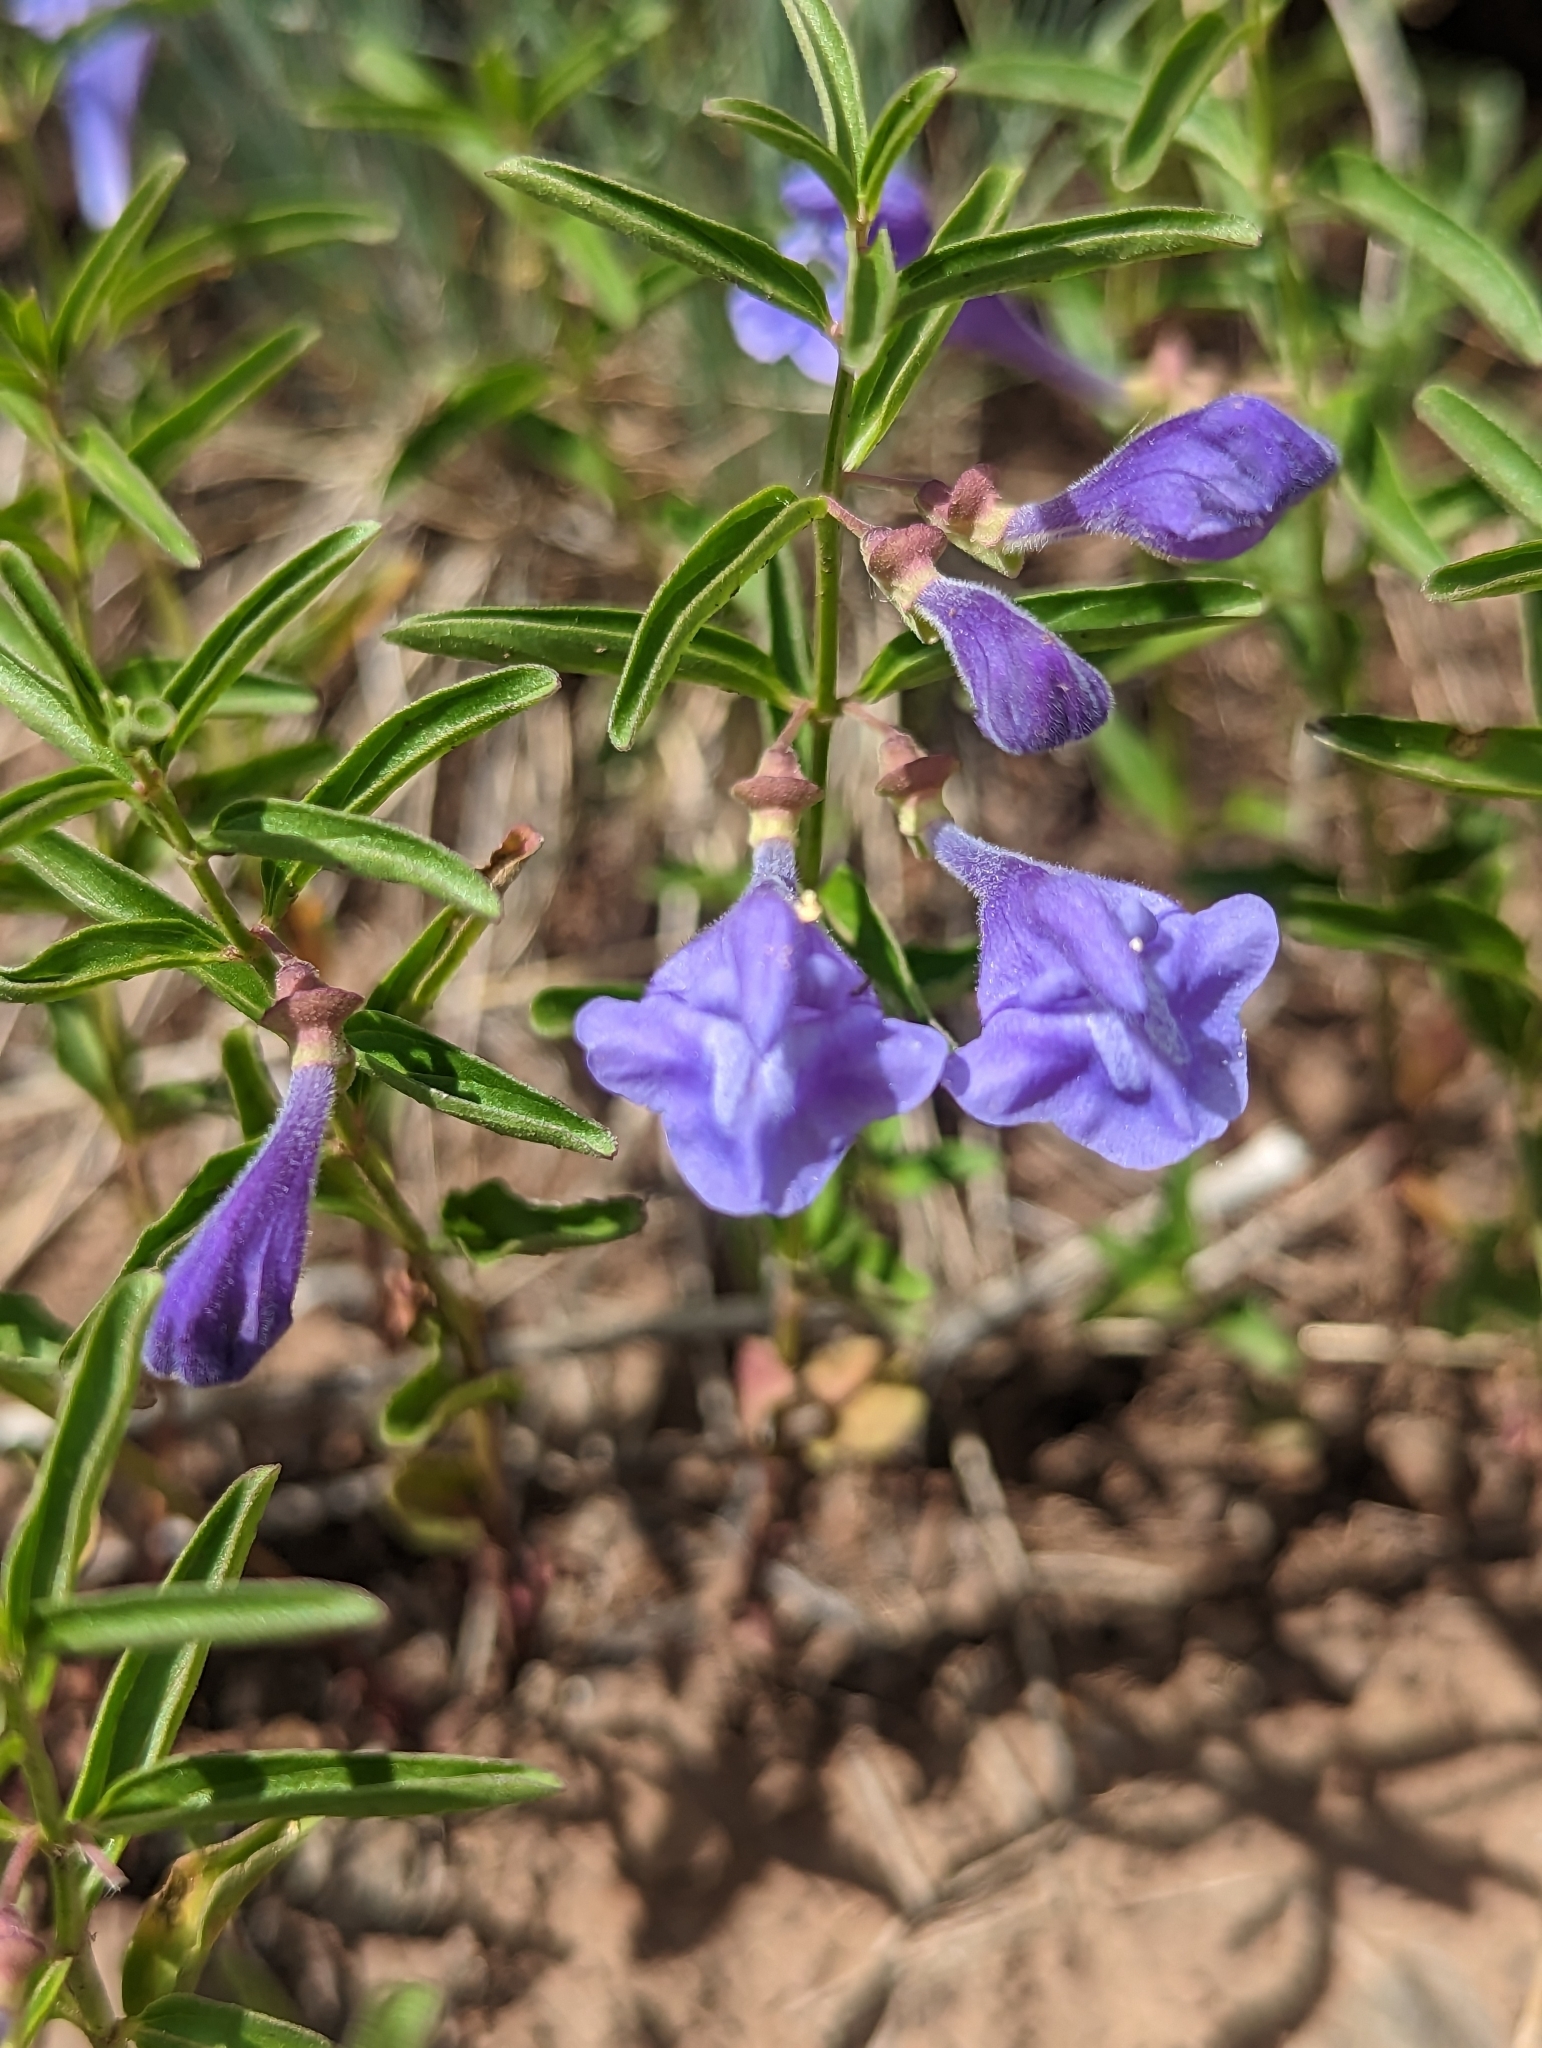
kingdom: Plantae
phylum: Tracheophyta
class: Magnoliopsida
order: Lamiales
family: Lamiaceae
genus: Scutellaria
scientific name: Scutellaria angustifolia
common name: Narrow-leaved skullcap
